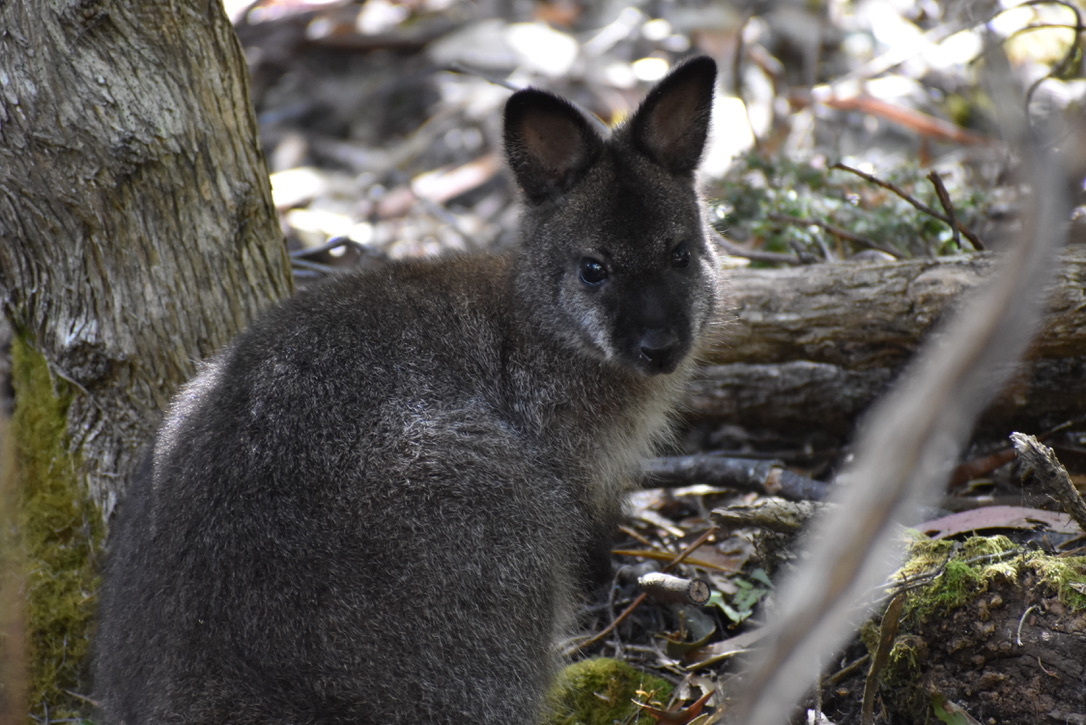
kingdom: Animalia
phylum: Chordata
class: Mammalia
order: Diprotodontia
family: Macropodidae
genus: Notamacropus
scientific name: Notamacropus rufogriseus
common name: Red-necked wallaby
